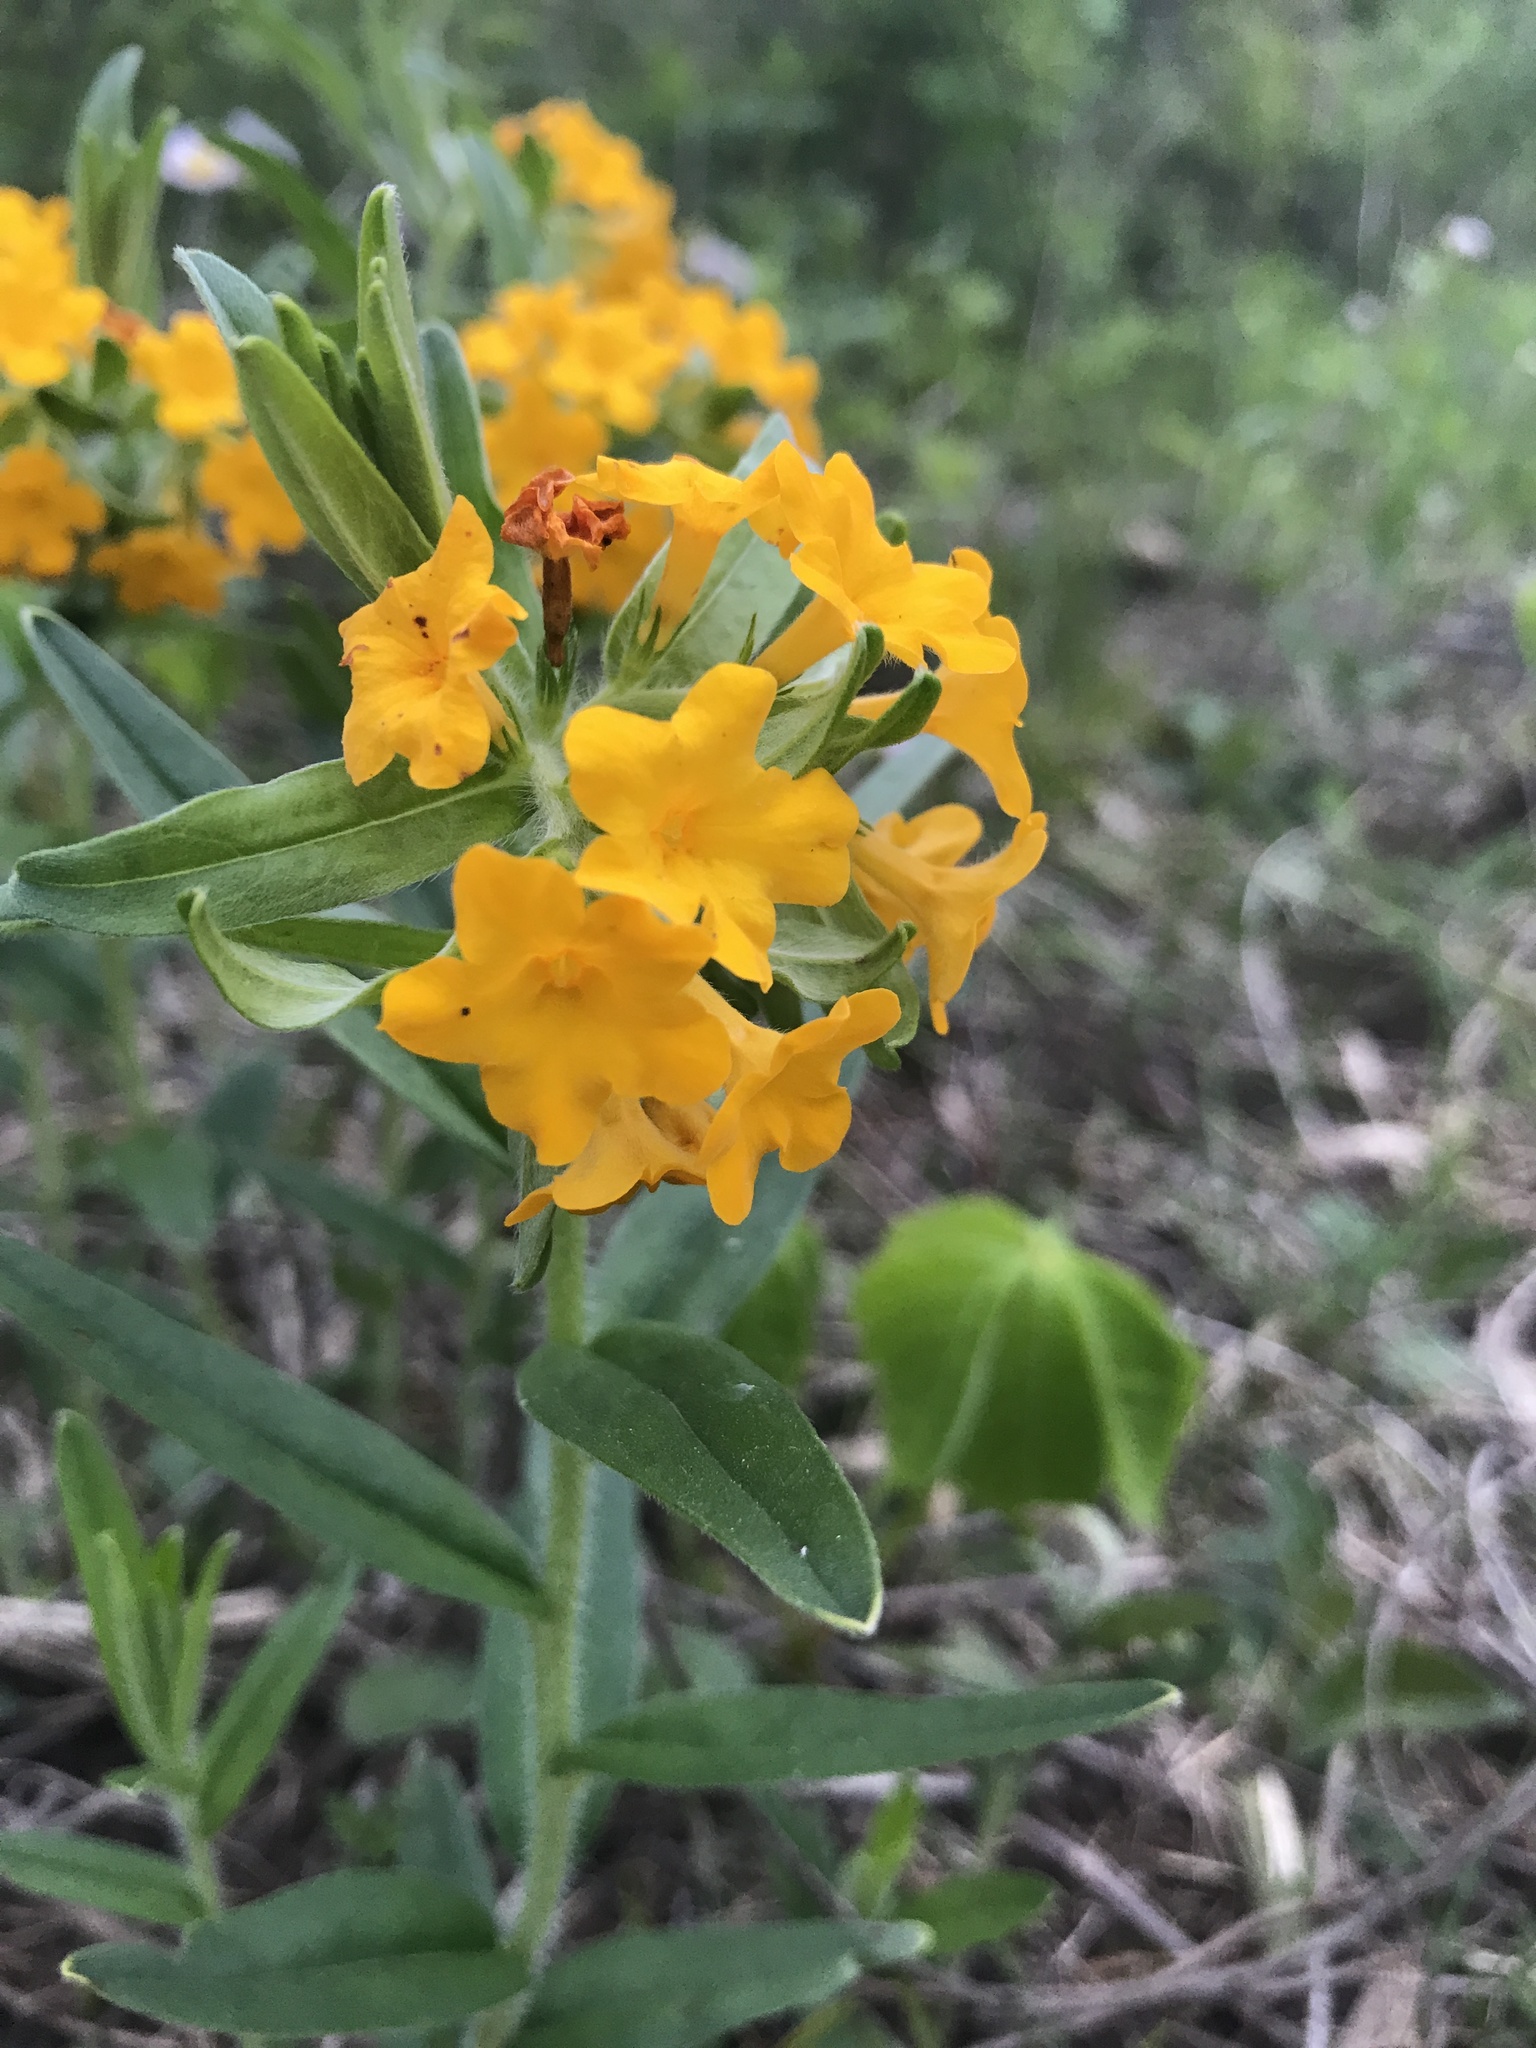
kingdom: Plantae
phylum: Tracheophyta
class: Magnoliopsida
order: Boraginales
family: Boraginaceae
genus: Lithospermum
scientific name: Lithospermum canescens
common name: Hoary puccoon
